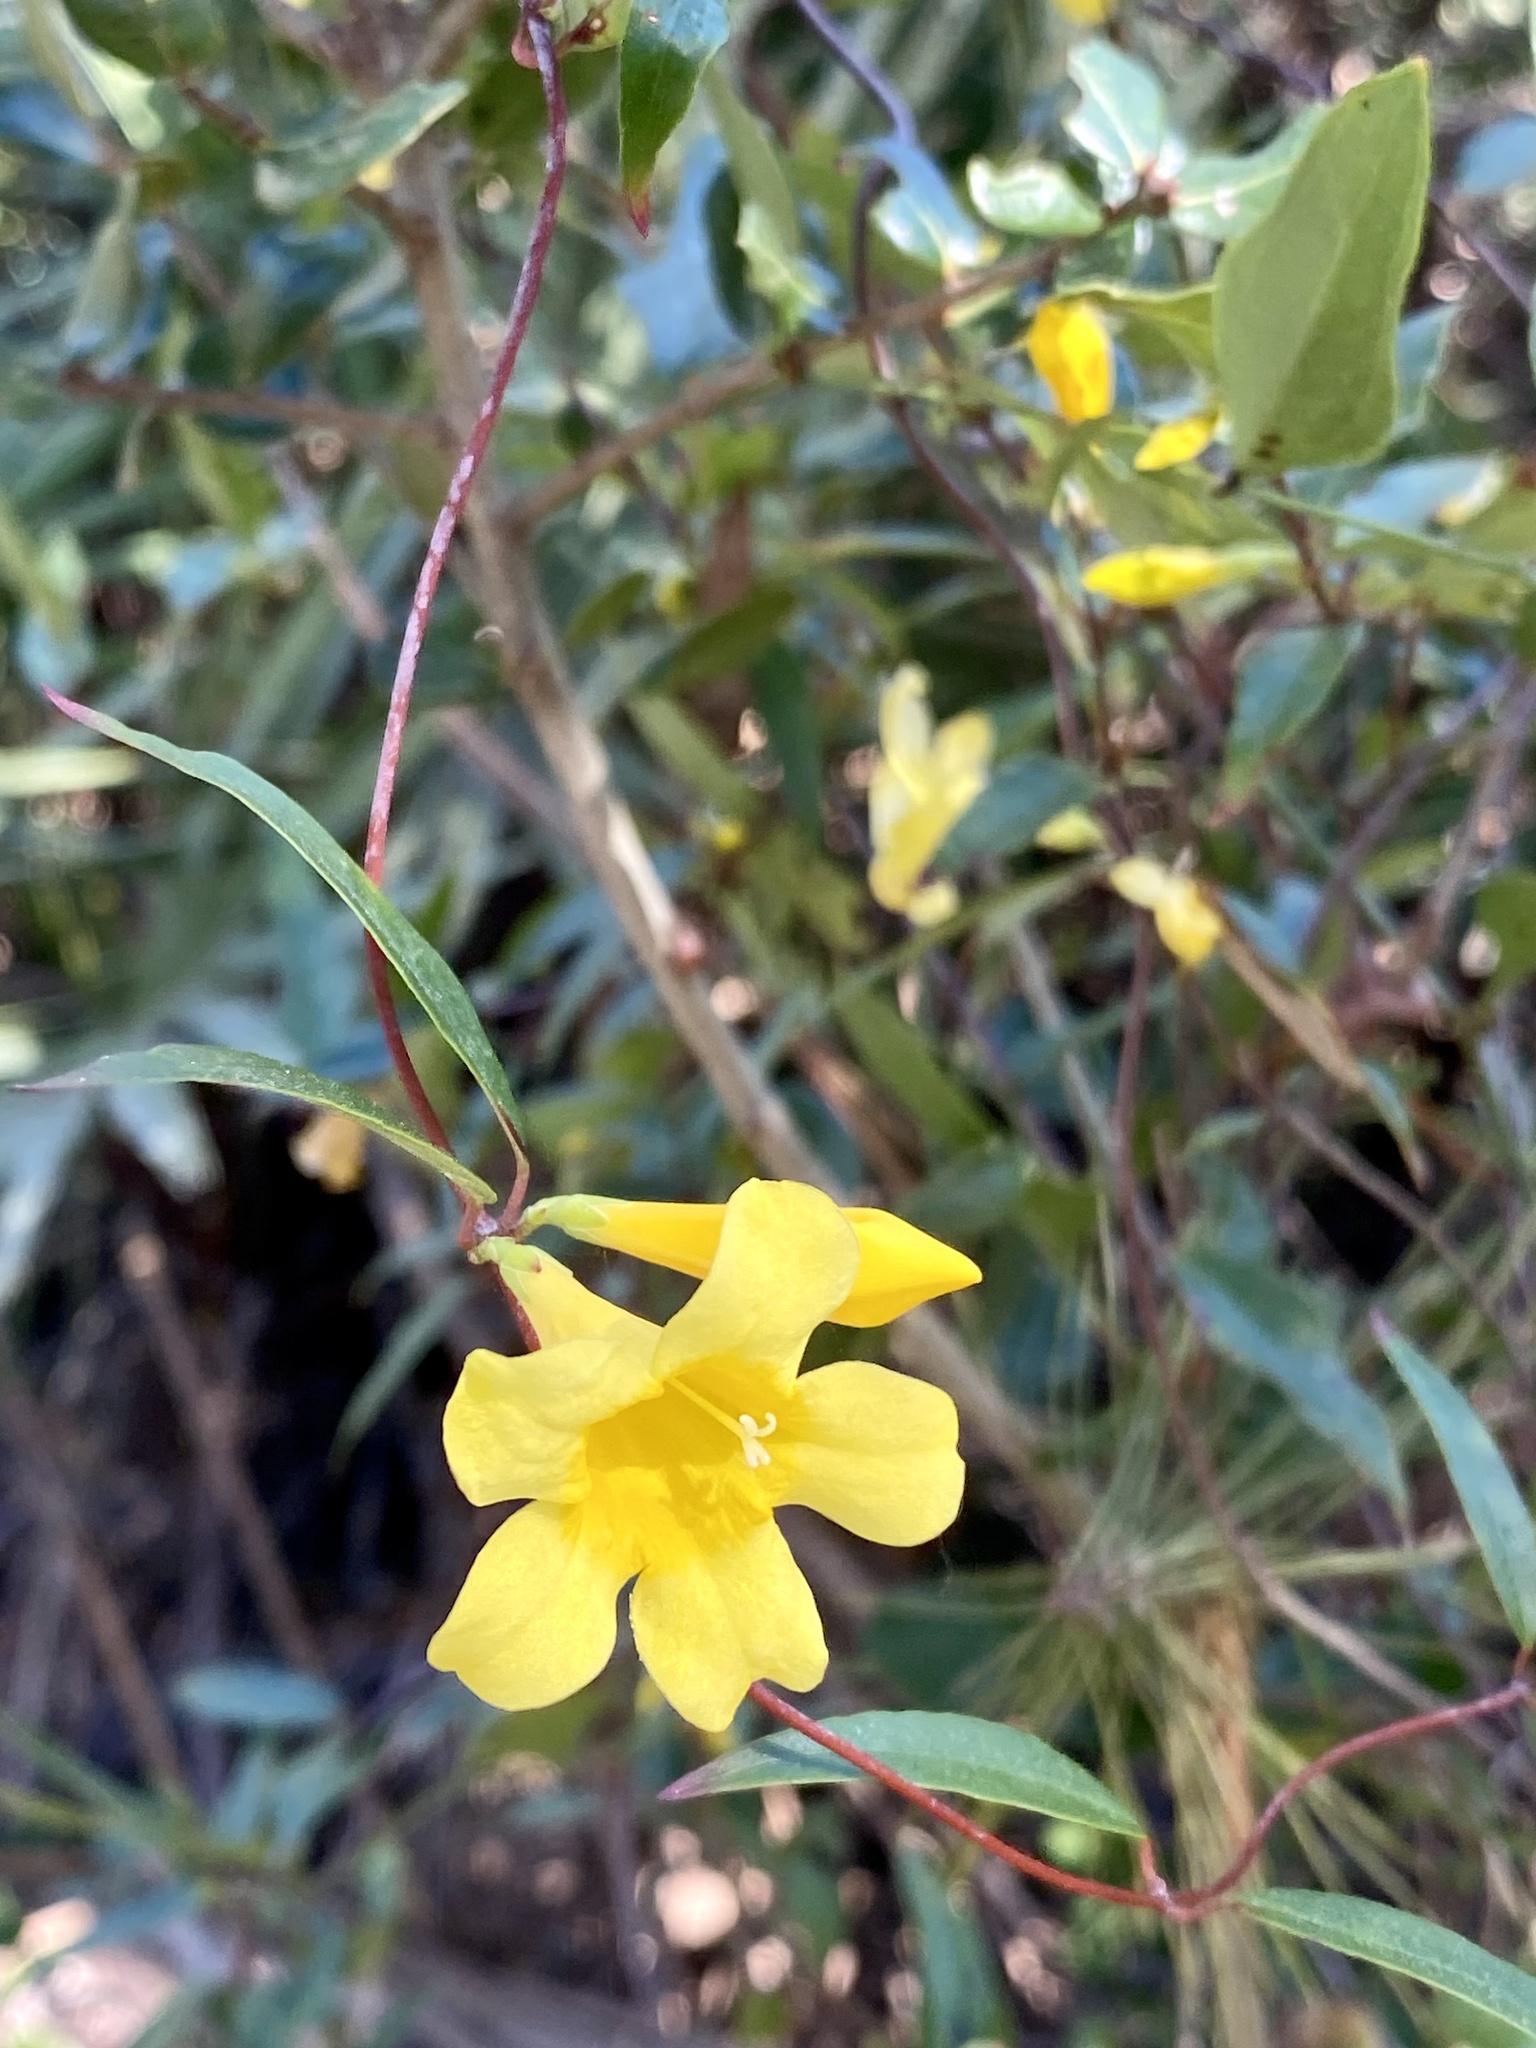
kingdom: Plantae
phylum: Tracheophyta
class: Magnoliopsida
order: Gentianales
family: Gelsemiaceae
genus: Gelsemium
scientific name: Gelsemium sempervirens
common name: Carolina-jasmine
